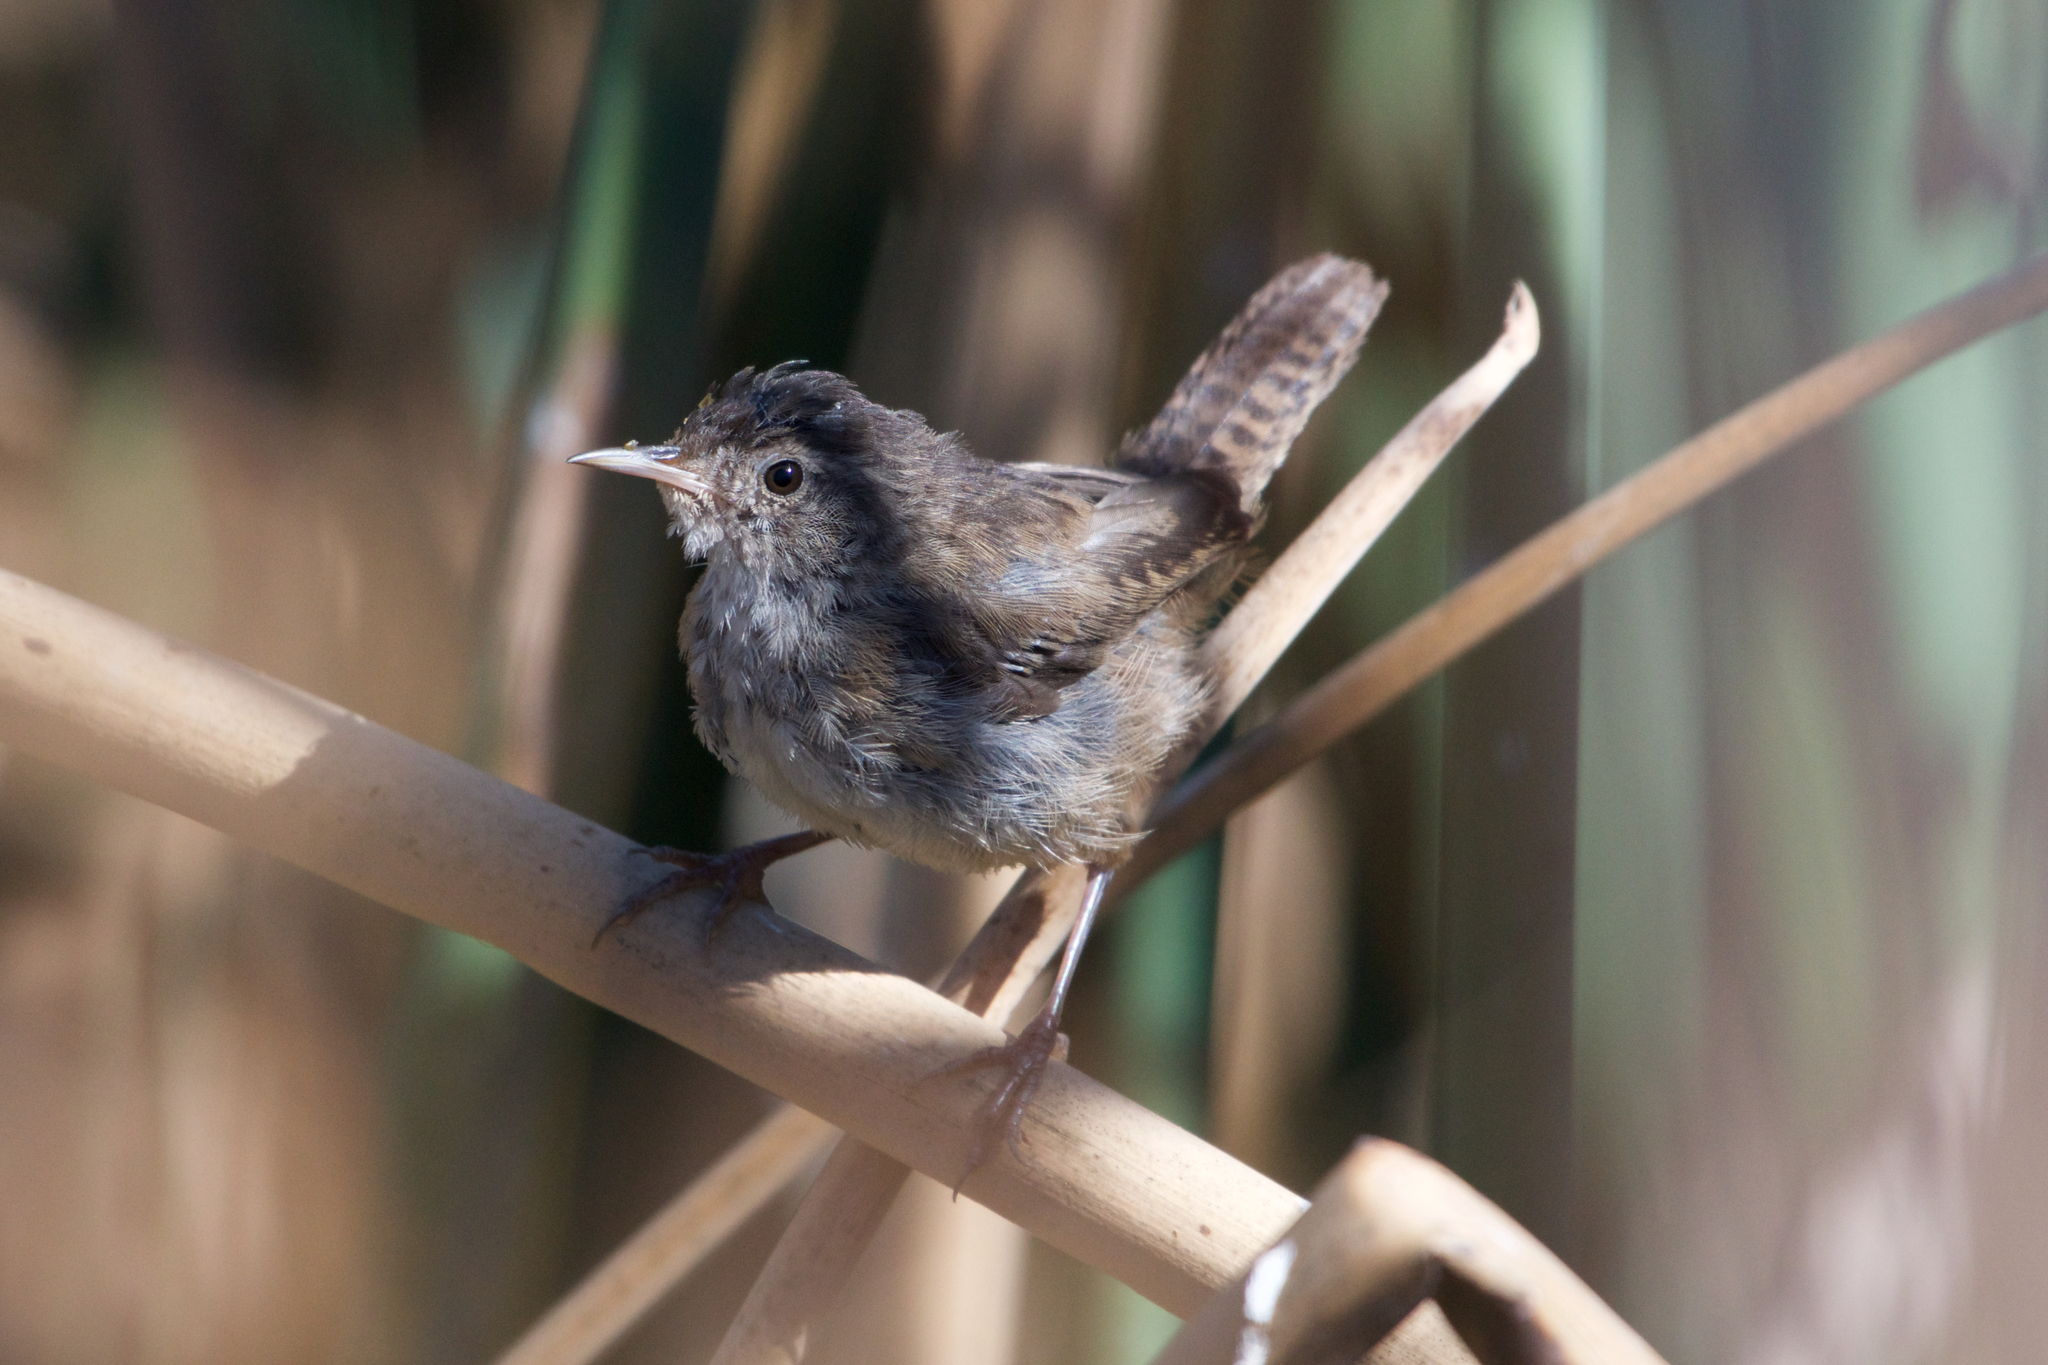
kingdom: Animalia
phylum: Chordata
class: Aves
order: Passeriformes
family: Troglodytidae
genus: Cistothorus
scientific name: Cistothorus palustris
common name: Marsh wren
